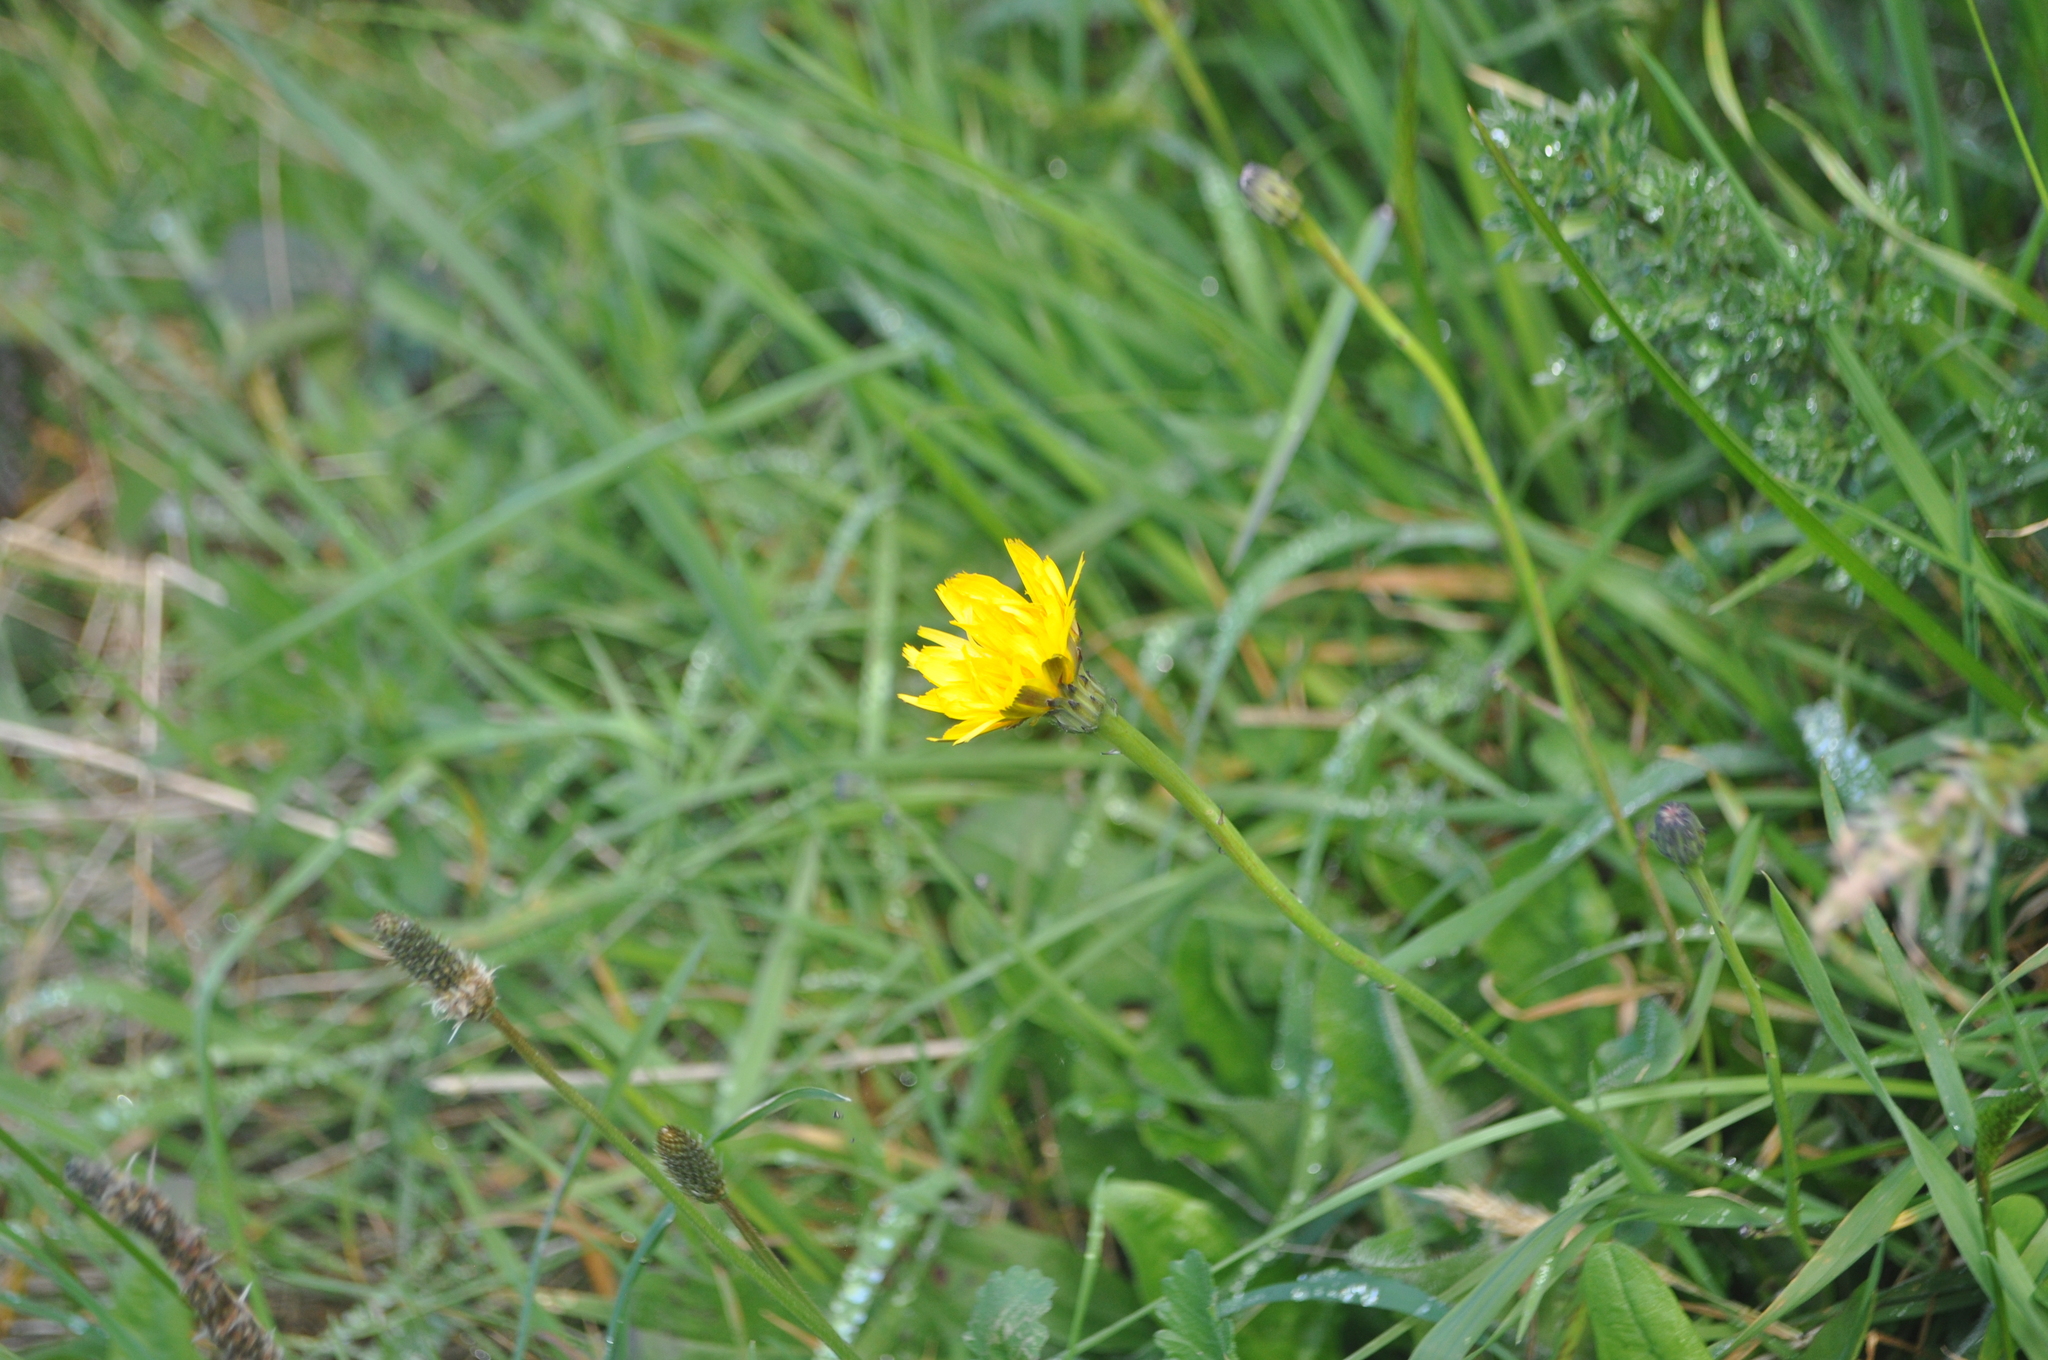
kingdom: Plantae
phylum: Tracheophyta
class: Magnoliopsida
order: Asterales
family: Asteraceae
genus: Hypochaeris
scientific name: Hypochaeris radicata
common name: Flatweed
